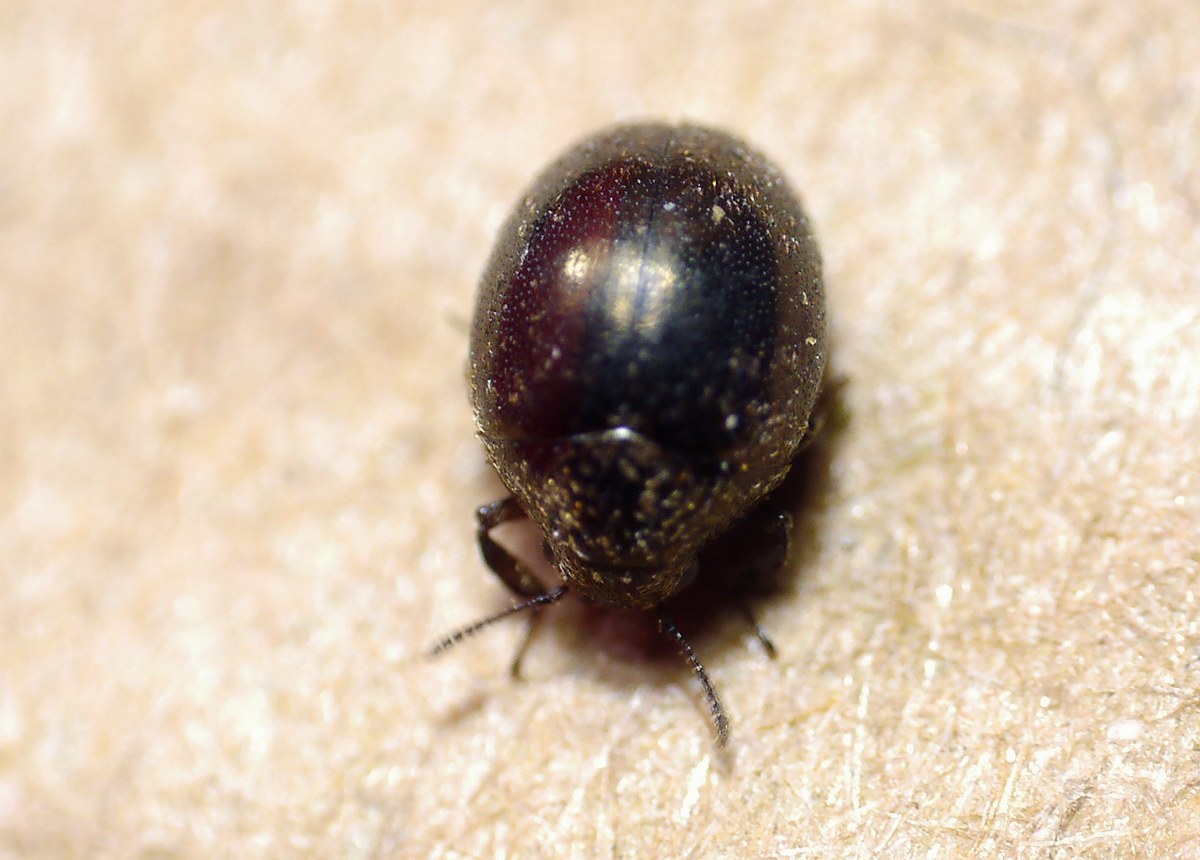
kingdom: Animalia
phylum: Arthropoda
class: Insecta
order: Coleoptera
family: Byrrhidae
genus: Lamprobyrrhulus
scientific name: Lamprobyrrhulus nitidus
